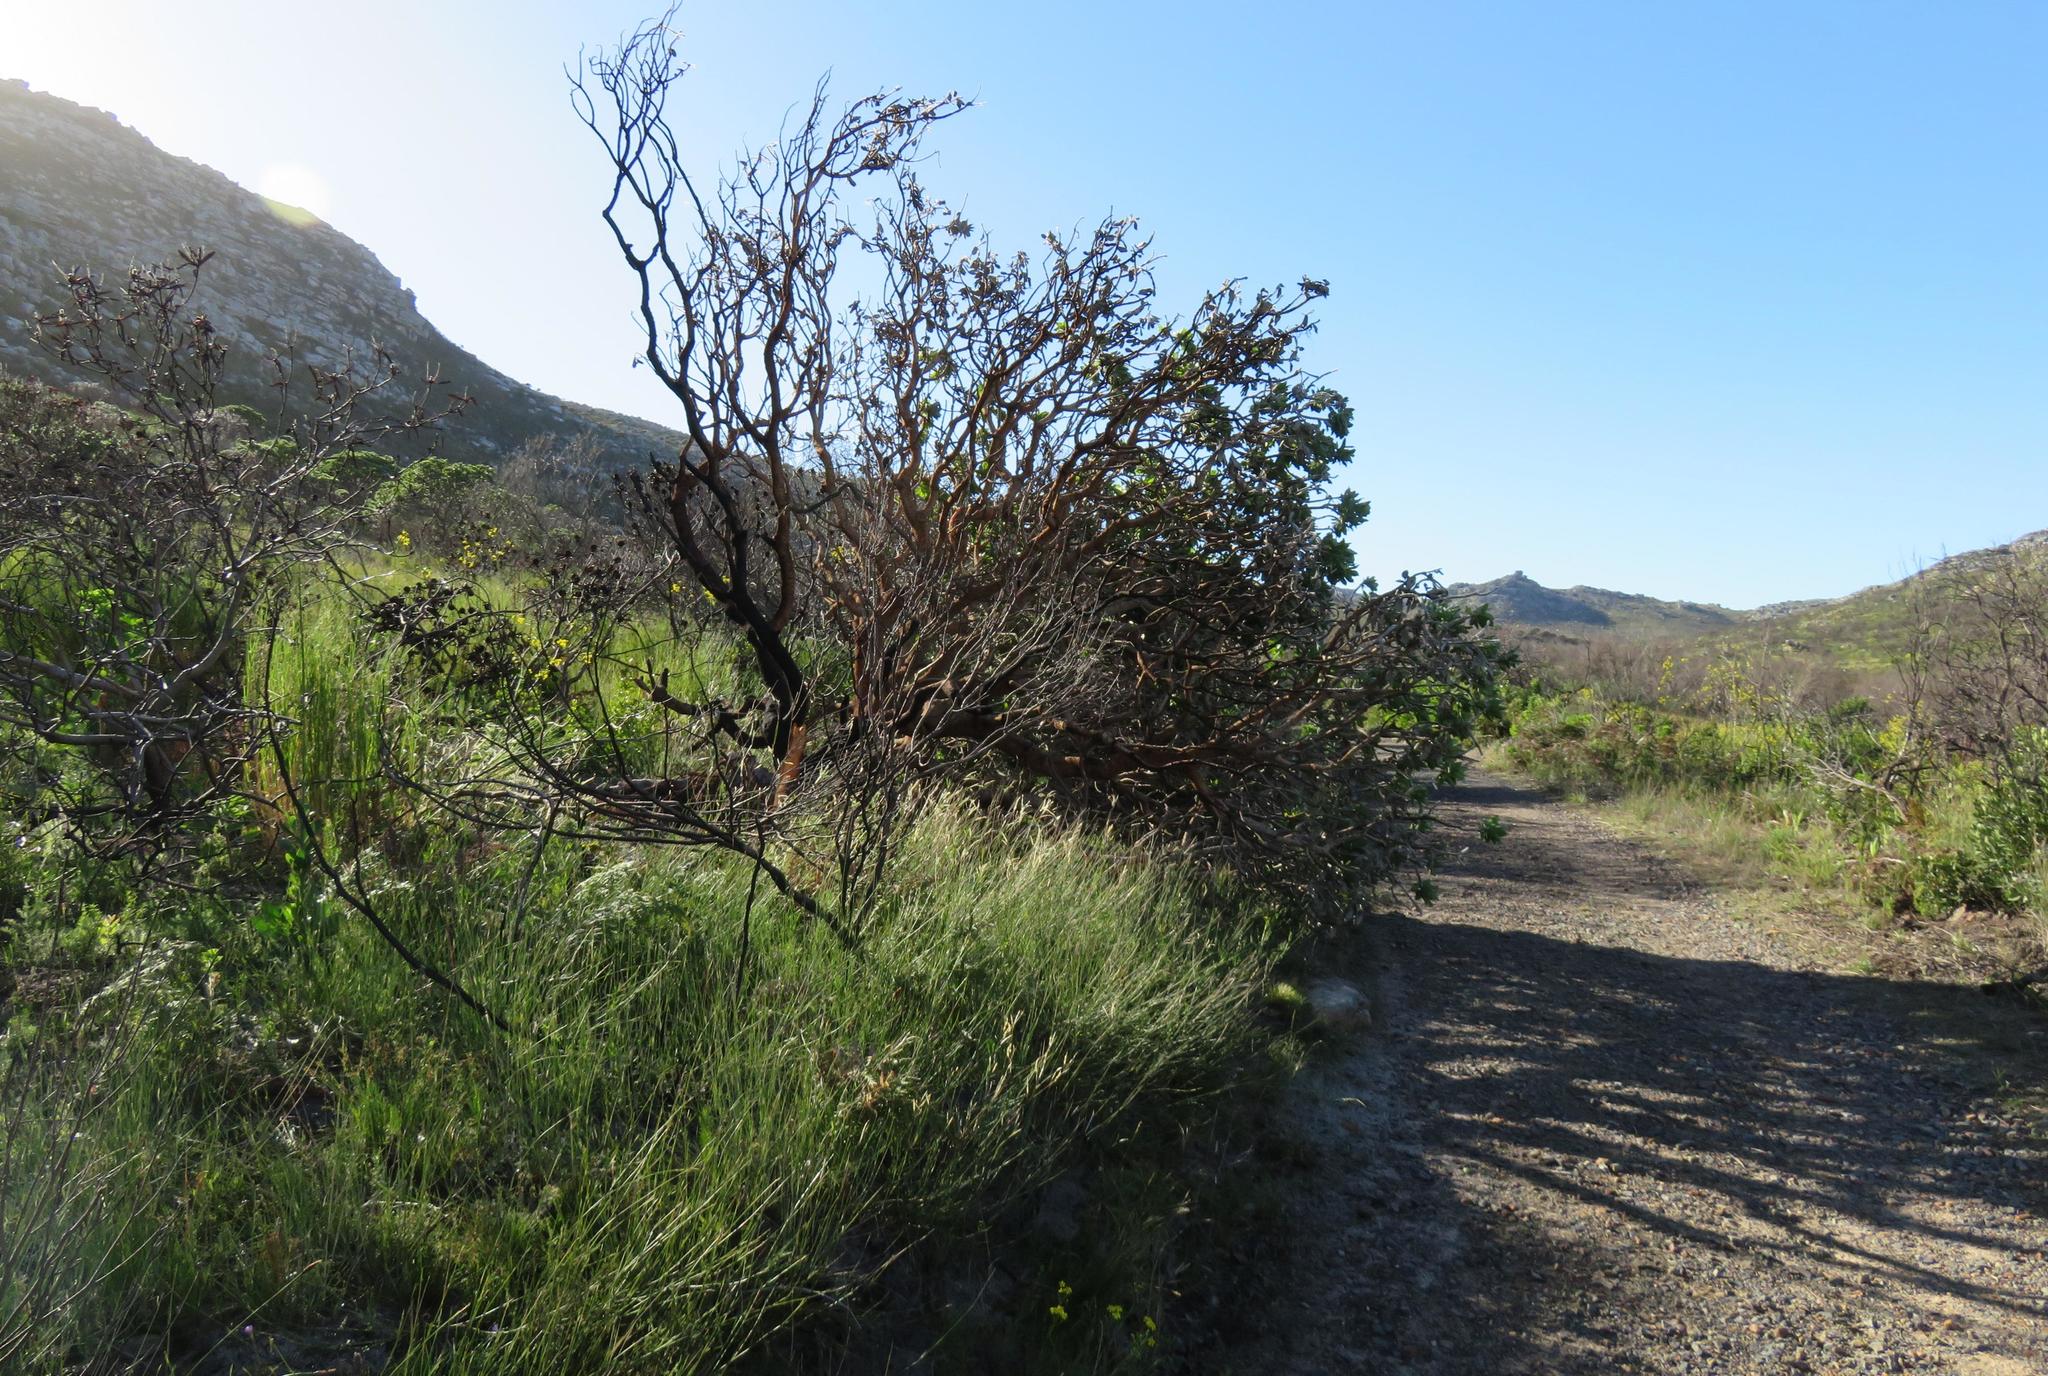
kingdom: Plantae
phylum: Tracheophyta
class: Magnoliopsida
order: Asterales
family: Asteraceae
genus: Othonna
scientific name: Othonna quinquedentata
